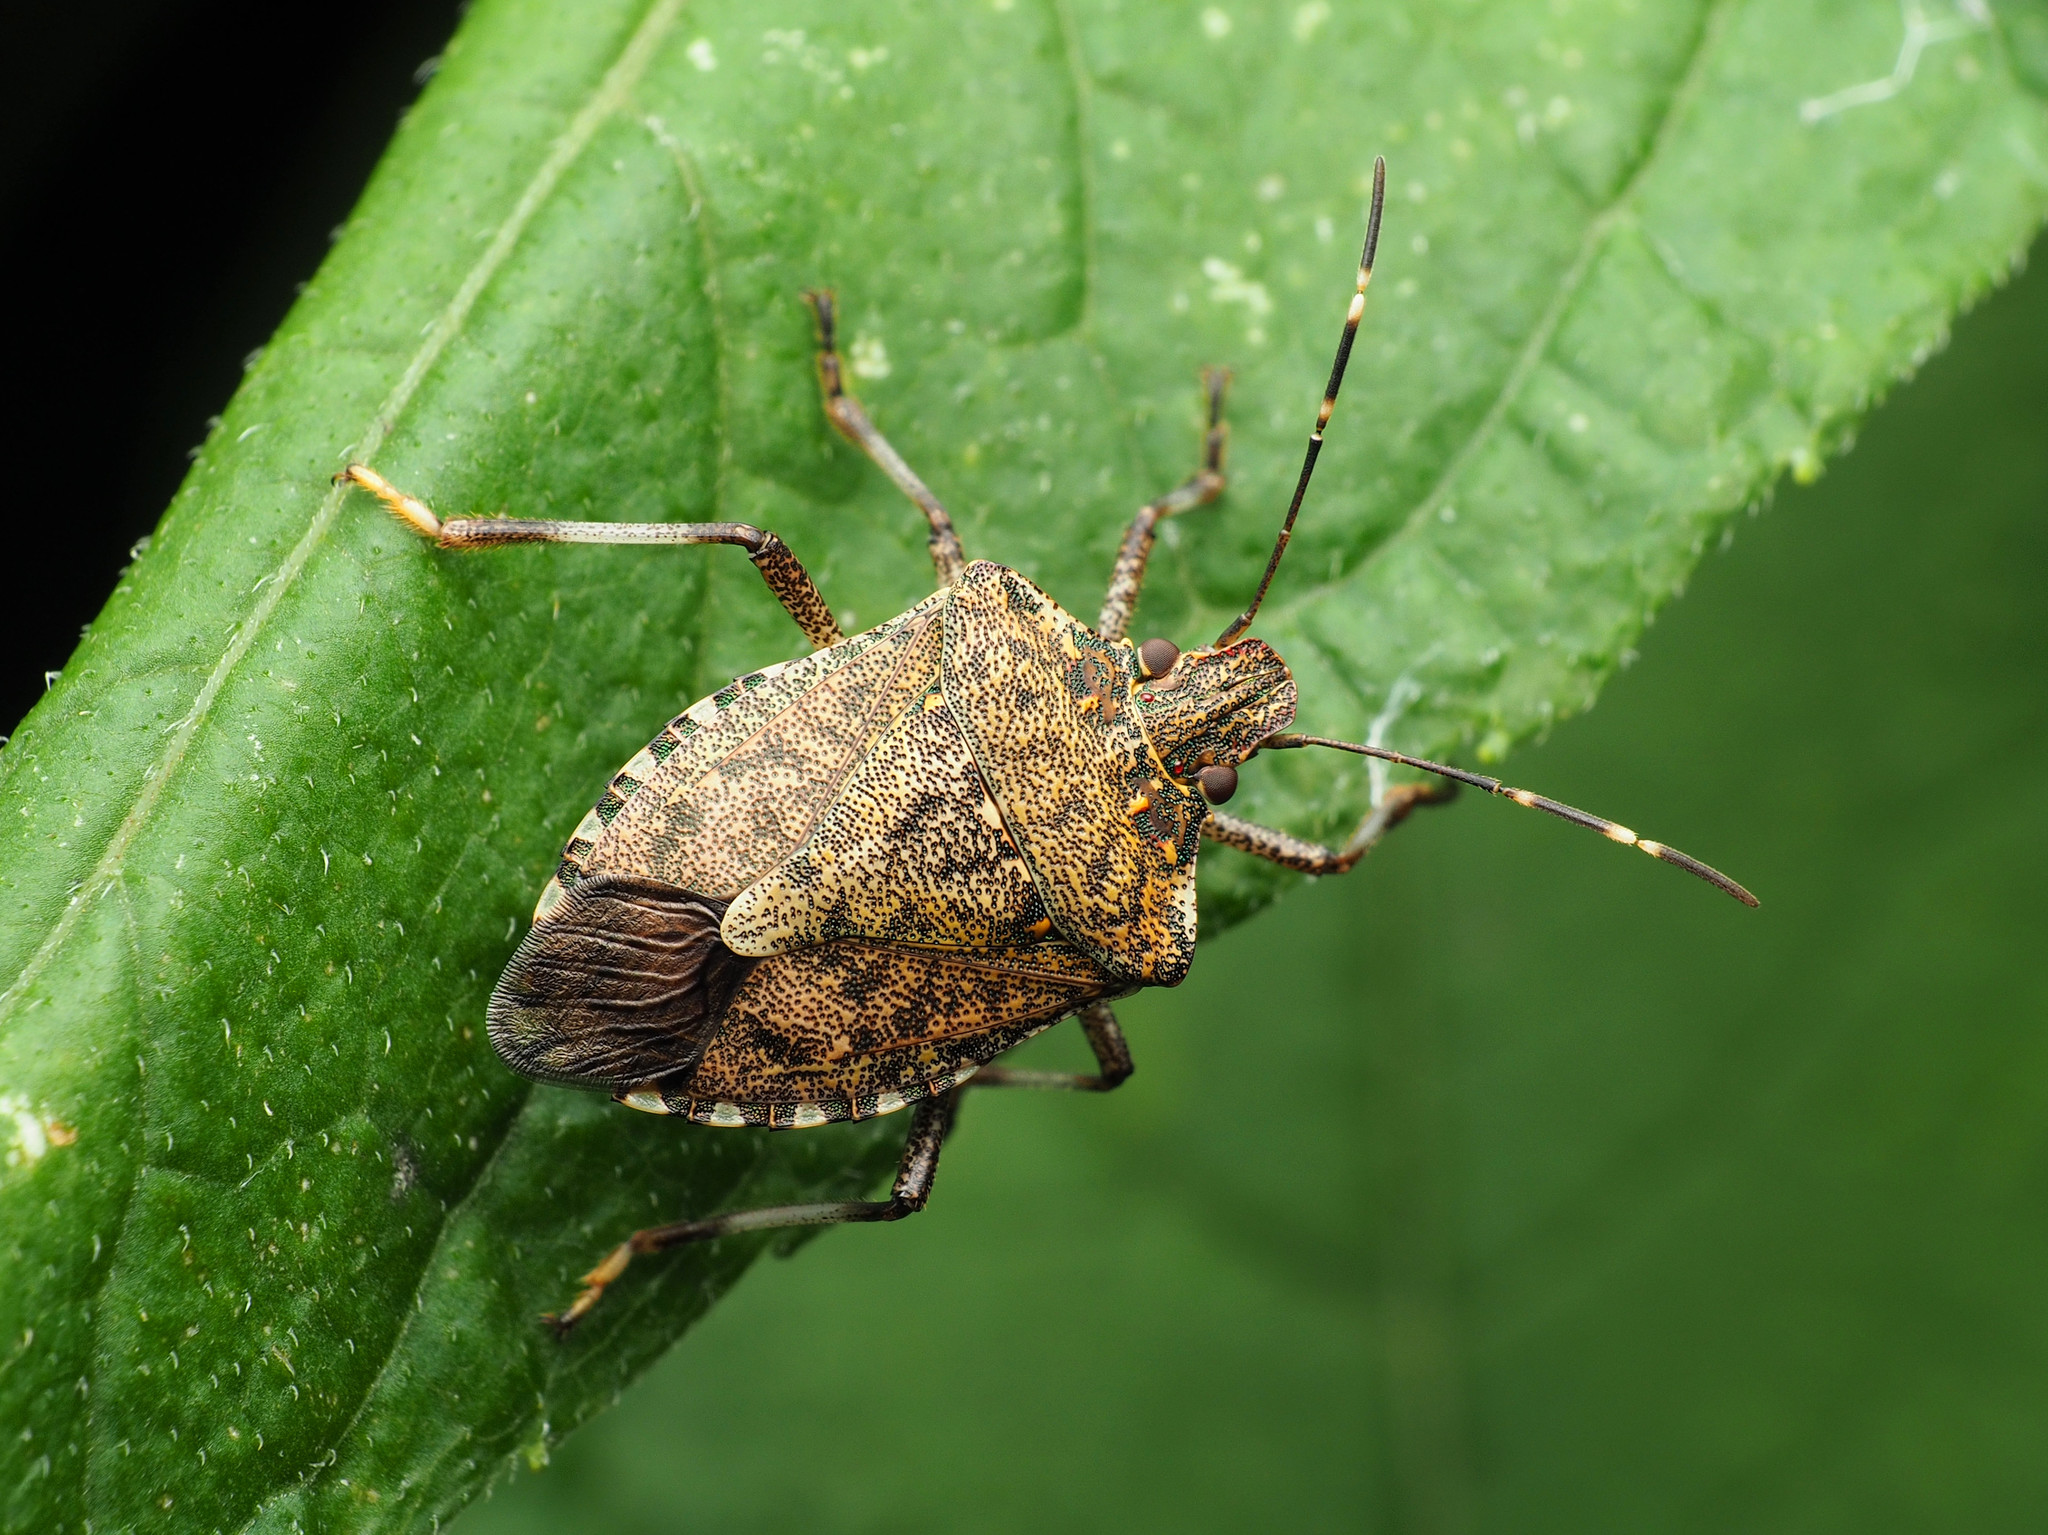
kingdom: Animalia
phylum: Arthropoda
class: Insecta
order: Hemiptera
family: Pentatomidae
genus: Halyomorpha
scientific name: Halyomorpha halys
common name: Brown marmorated stink bug
